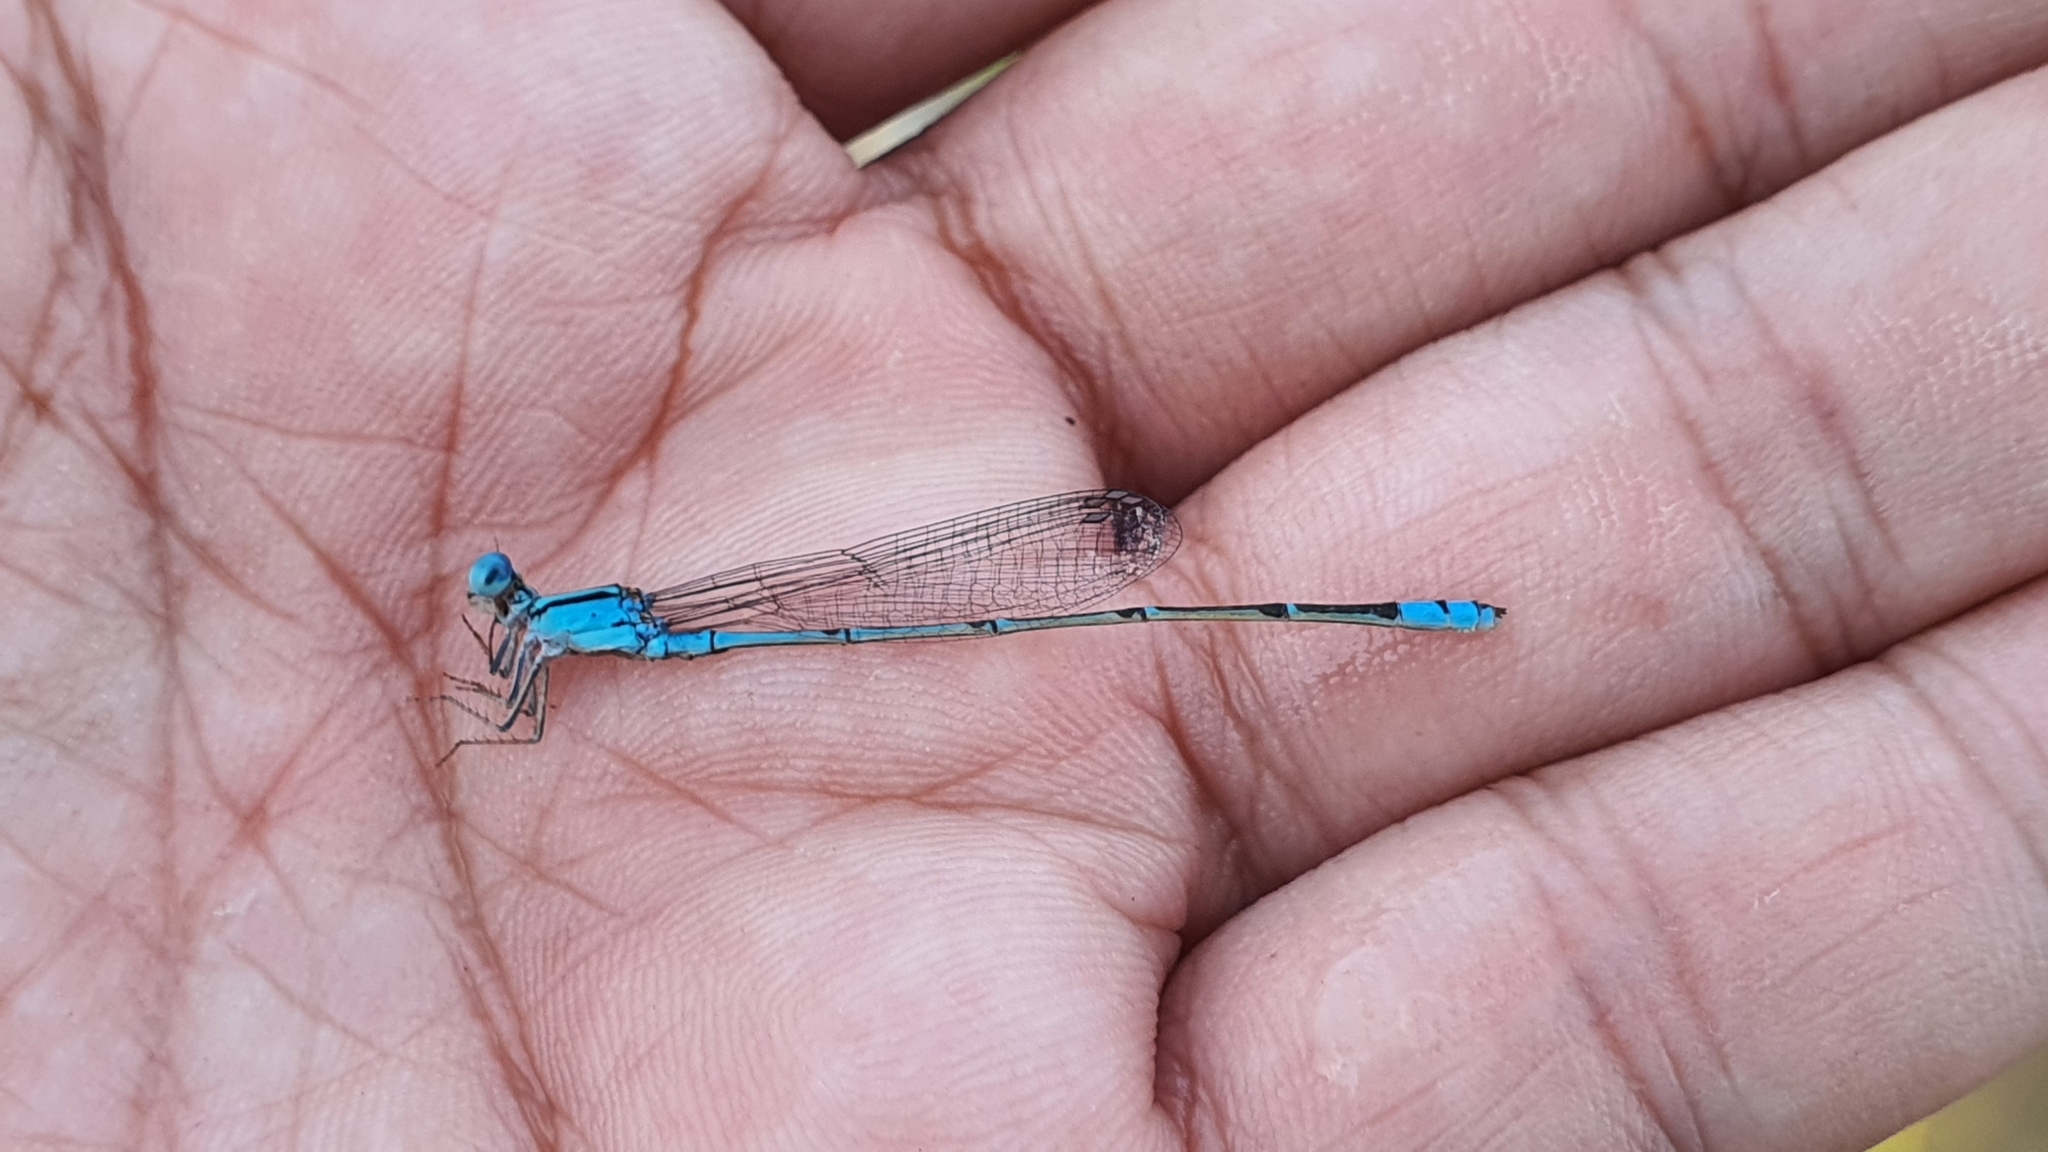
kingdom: Animalia
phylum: Arthropoda
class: Insecta
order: Odonata
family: Coenagrionidae
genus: Pseudagrion
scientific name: Pseudagrion microcephalum
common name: Blue riverdamsel
